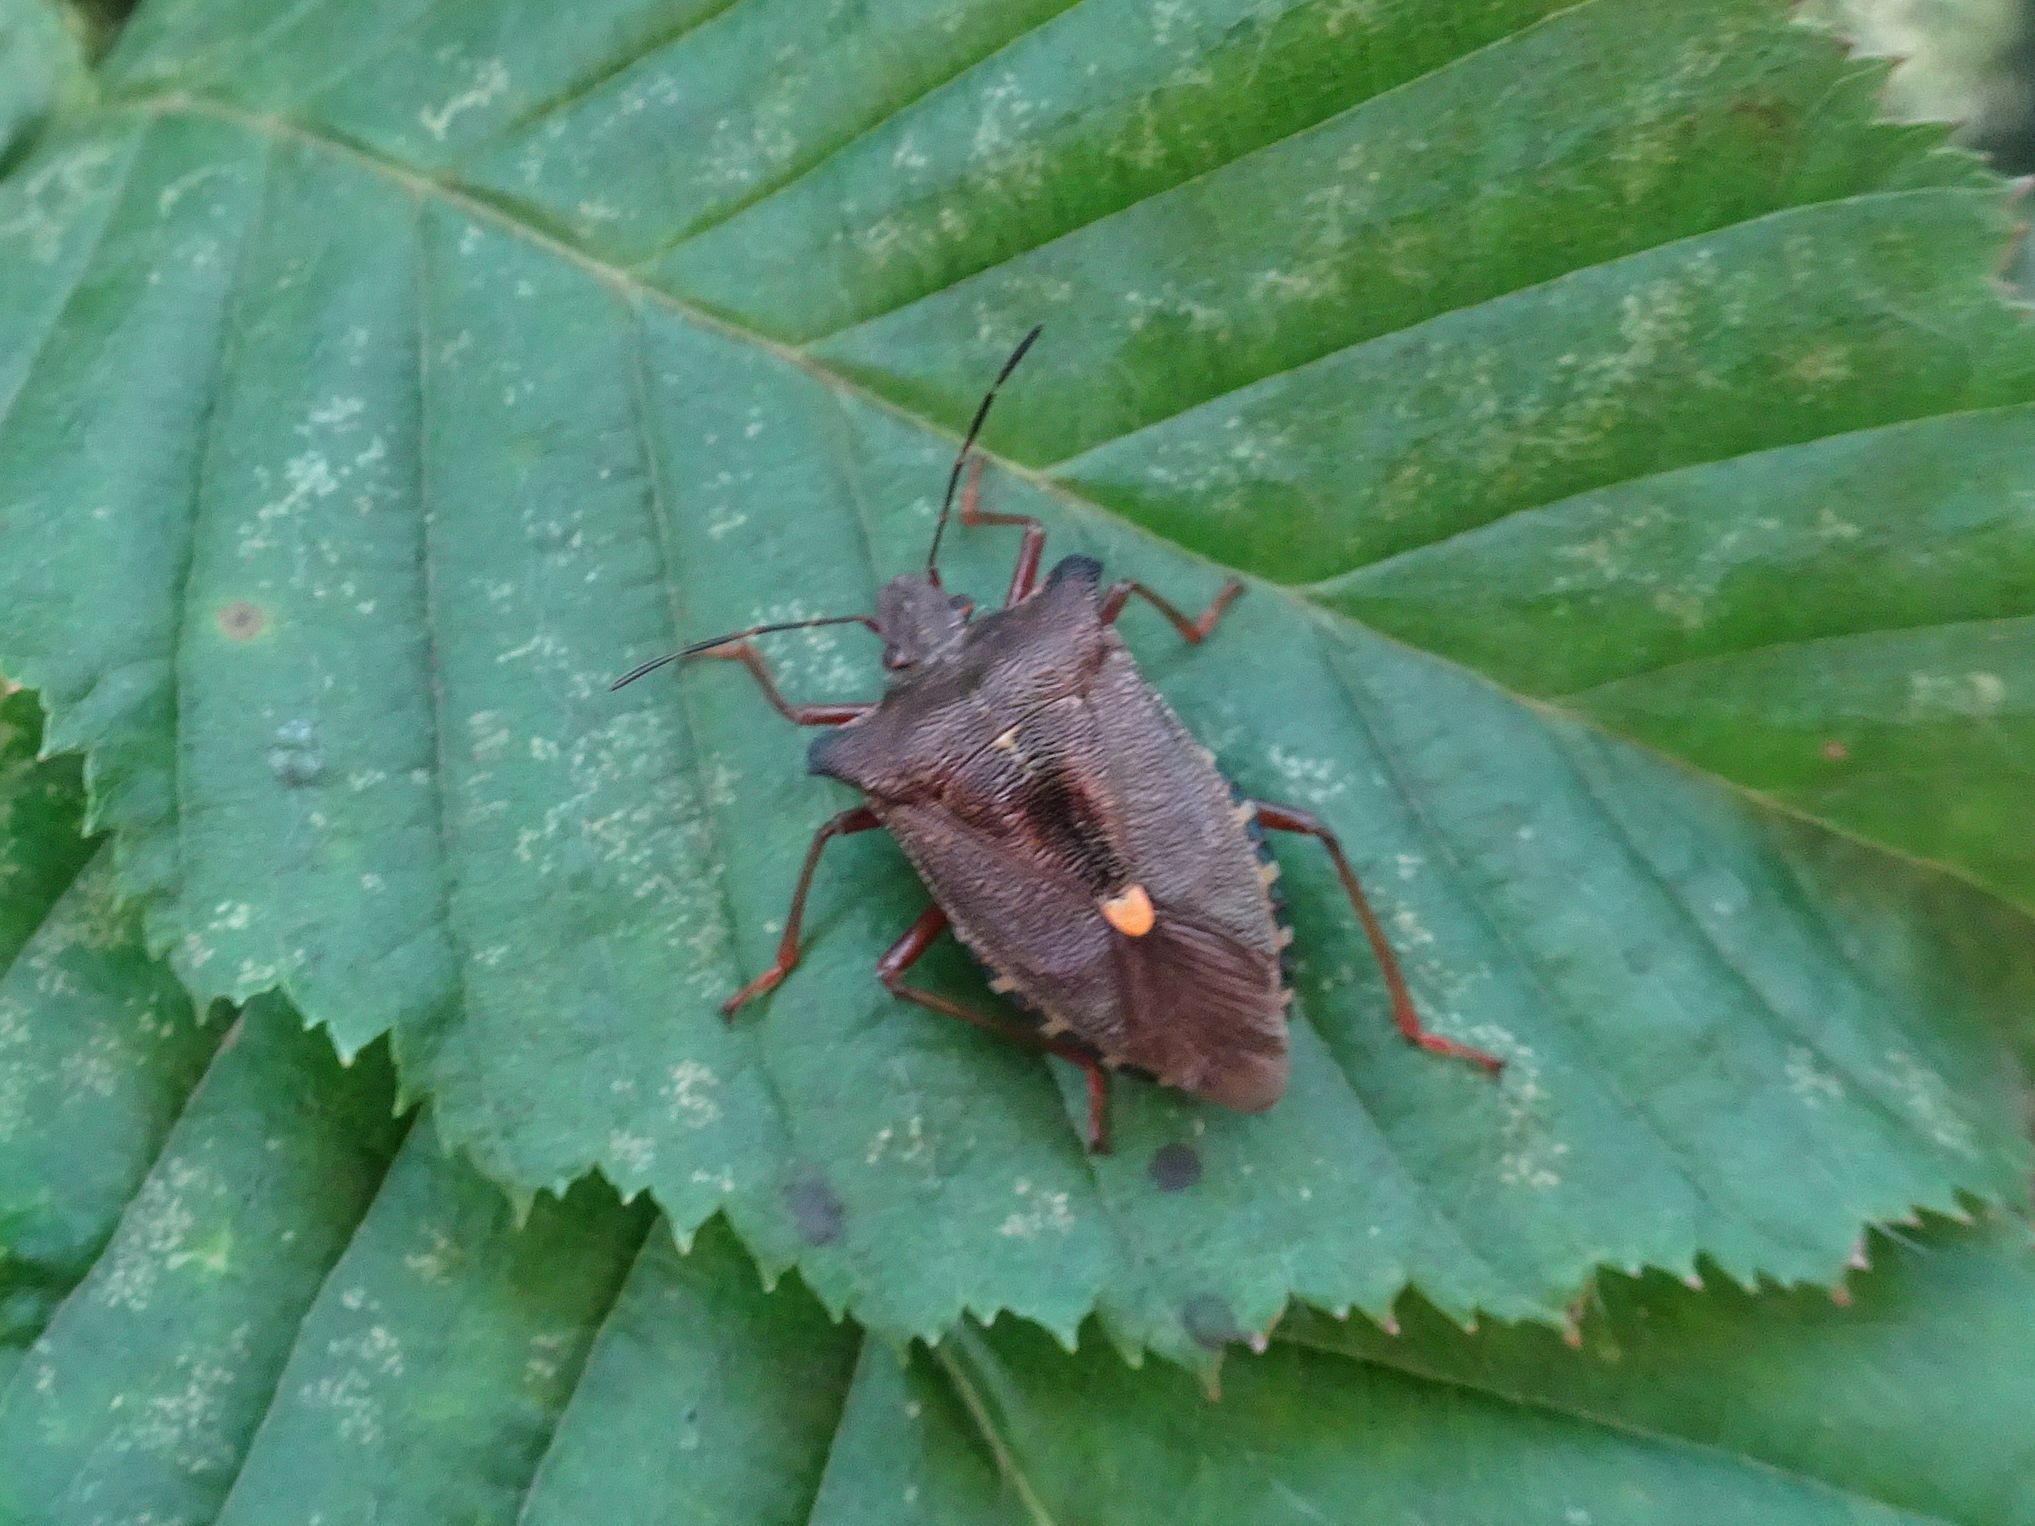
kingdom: Animalia
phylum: Arthropoda
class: Insecta
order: Hemiptera
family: Pentatomidae
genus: Pentatoma
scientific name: Pentatoma rufipes
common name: Forest bug
